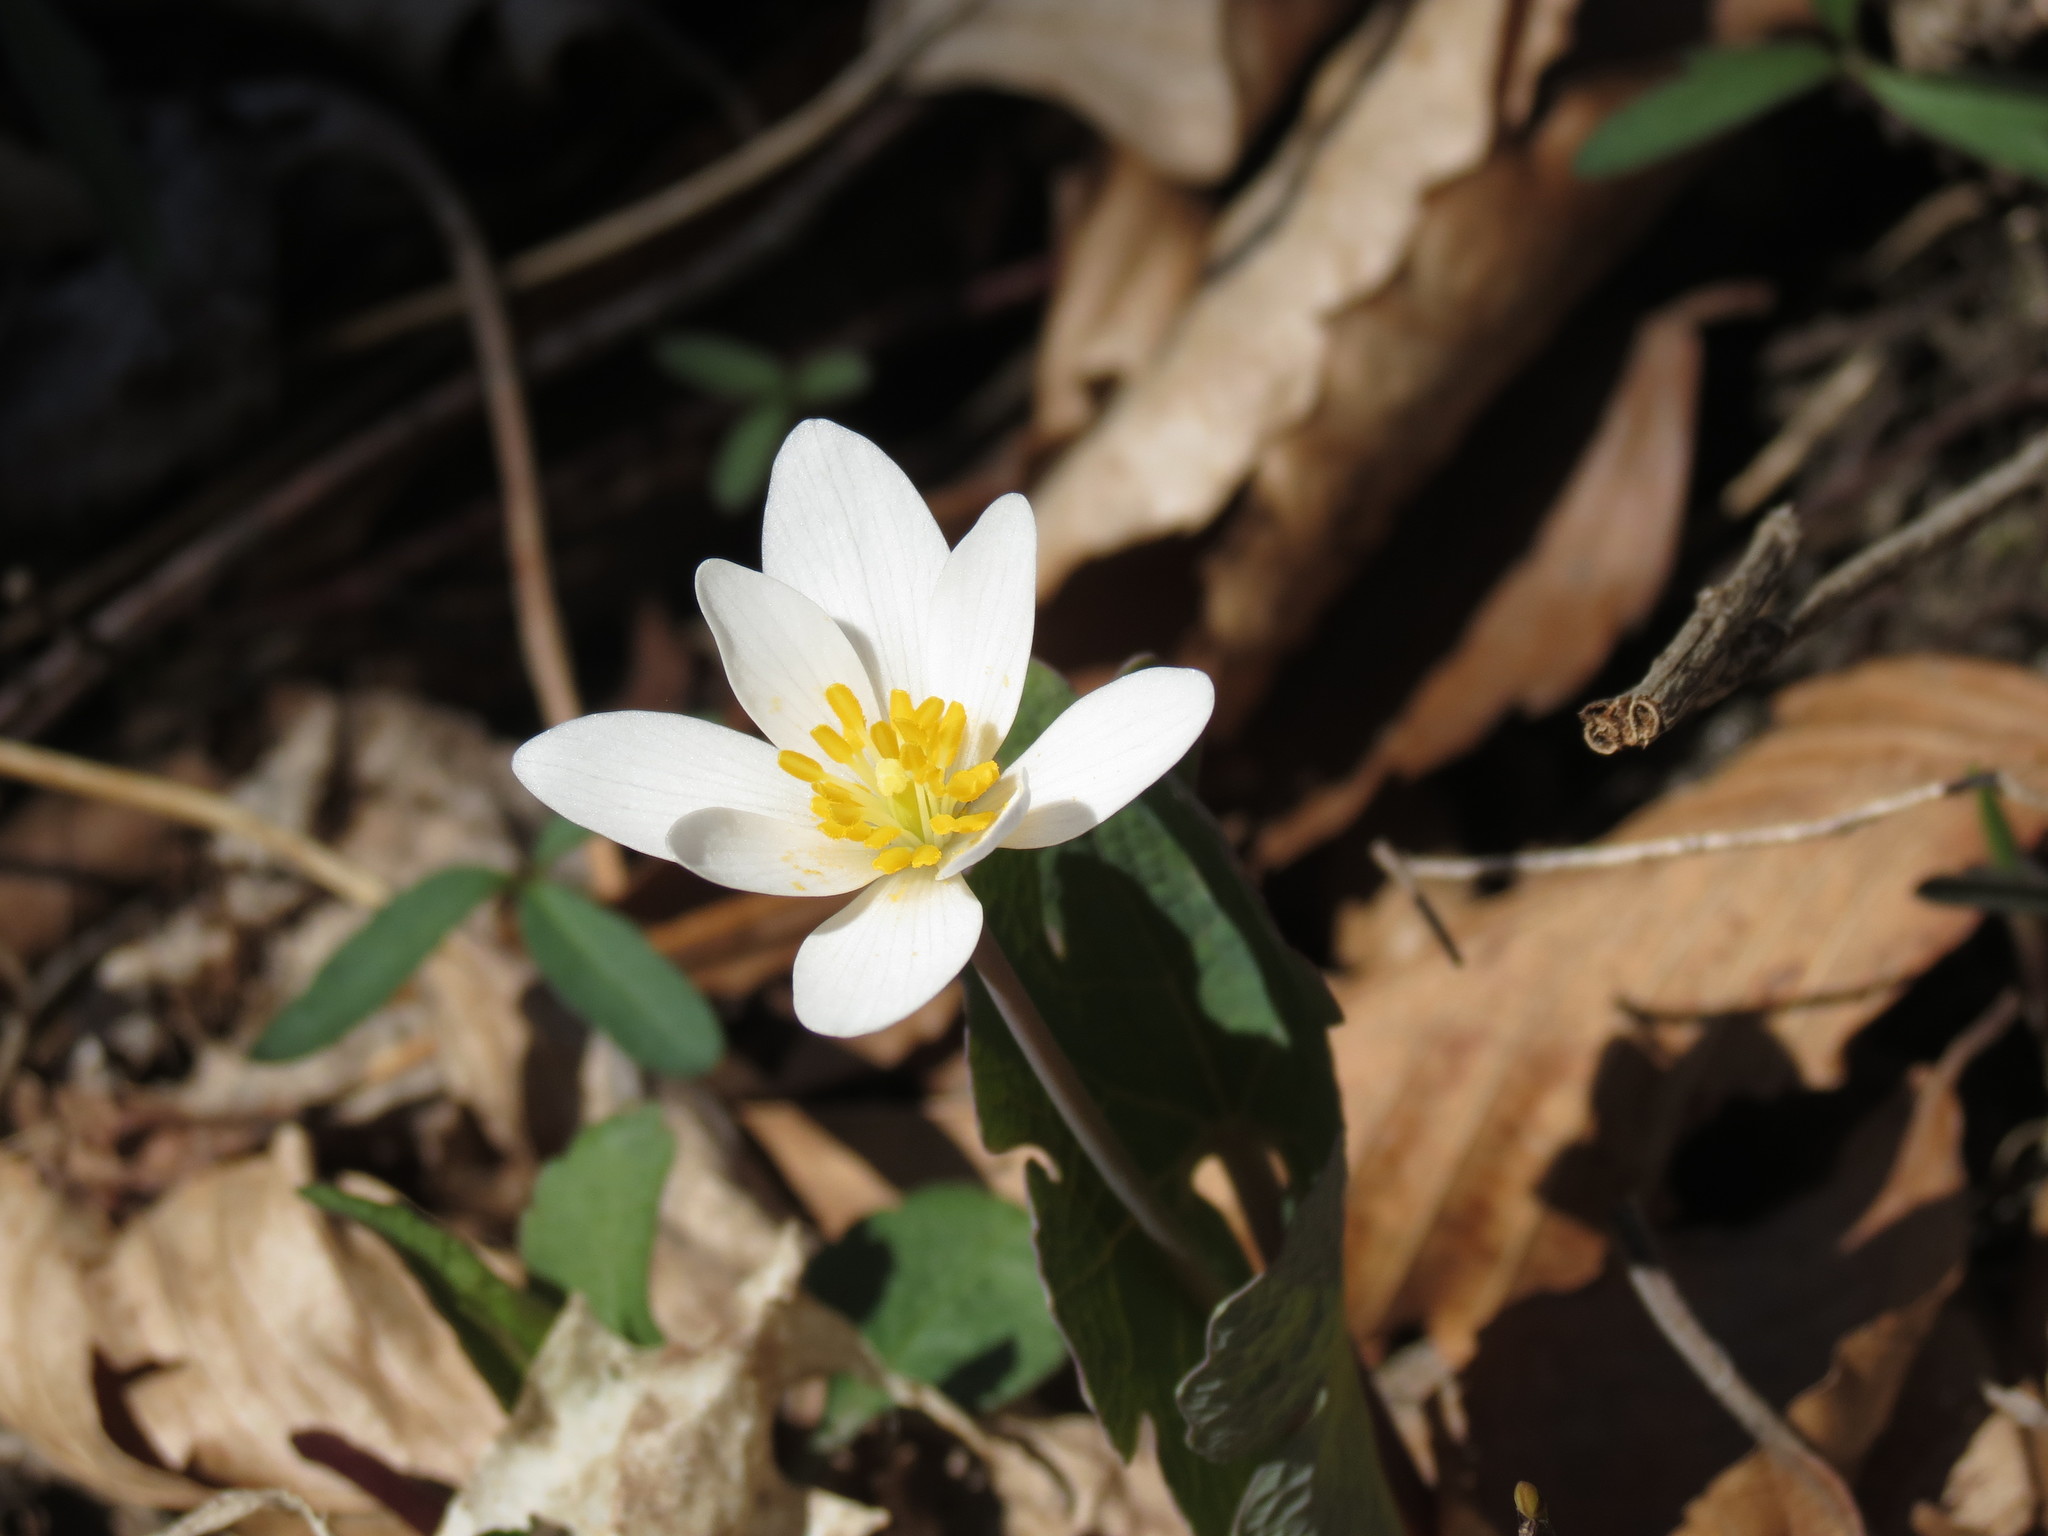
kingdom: Plantae
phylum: Tracheophyta
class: Magnoliopsida
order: Ranunculales
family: Papaveraceae
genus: Sanguinaria
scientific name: Sanguinaria canadensis
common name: Bloodroot
